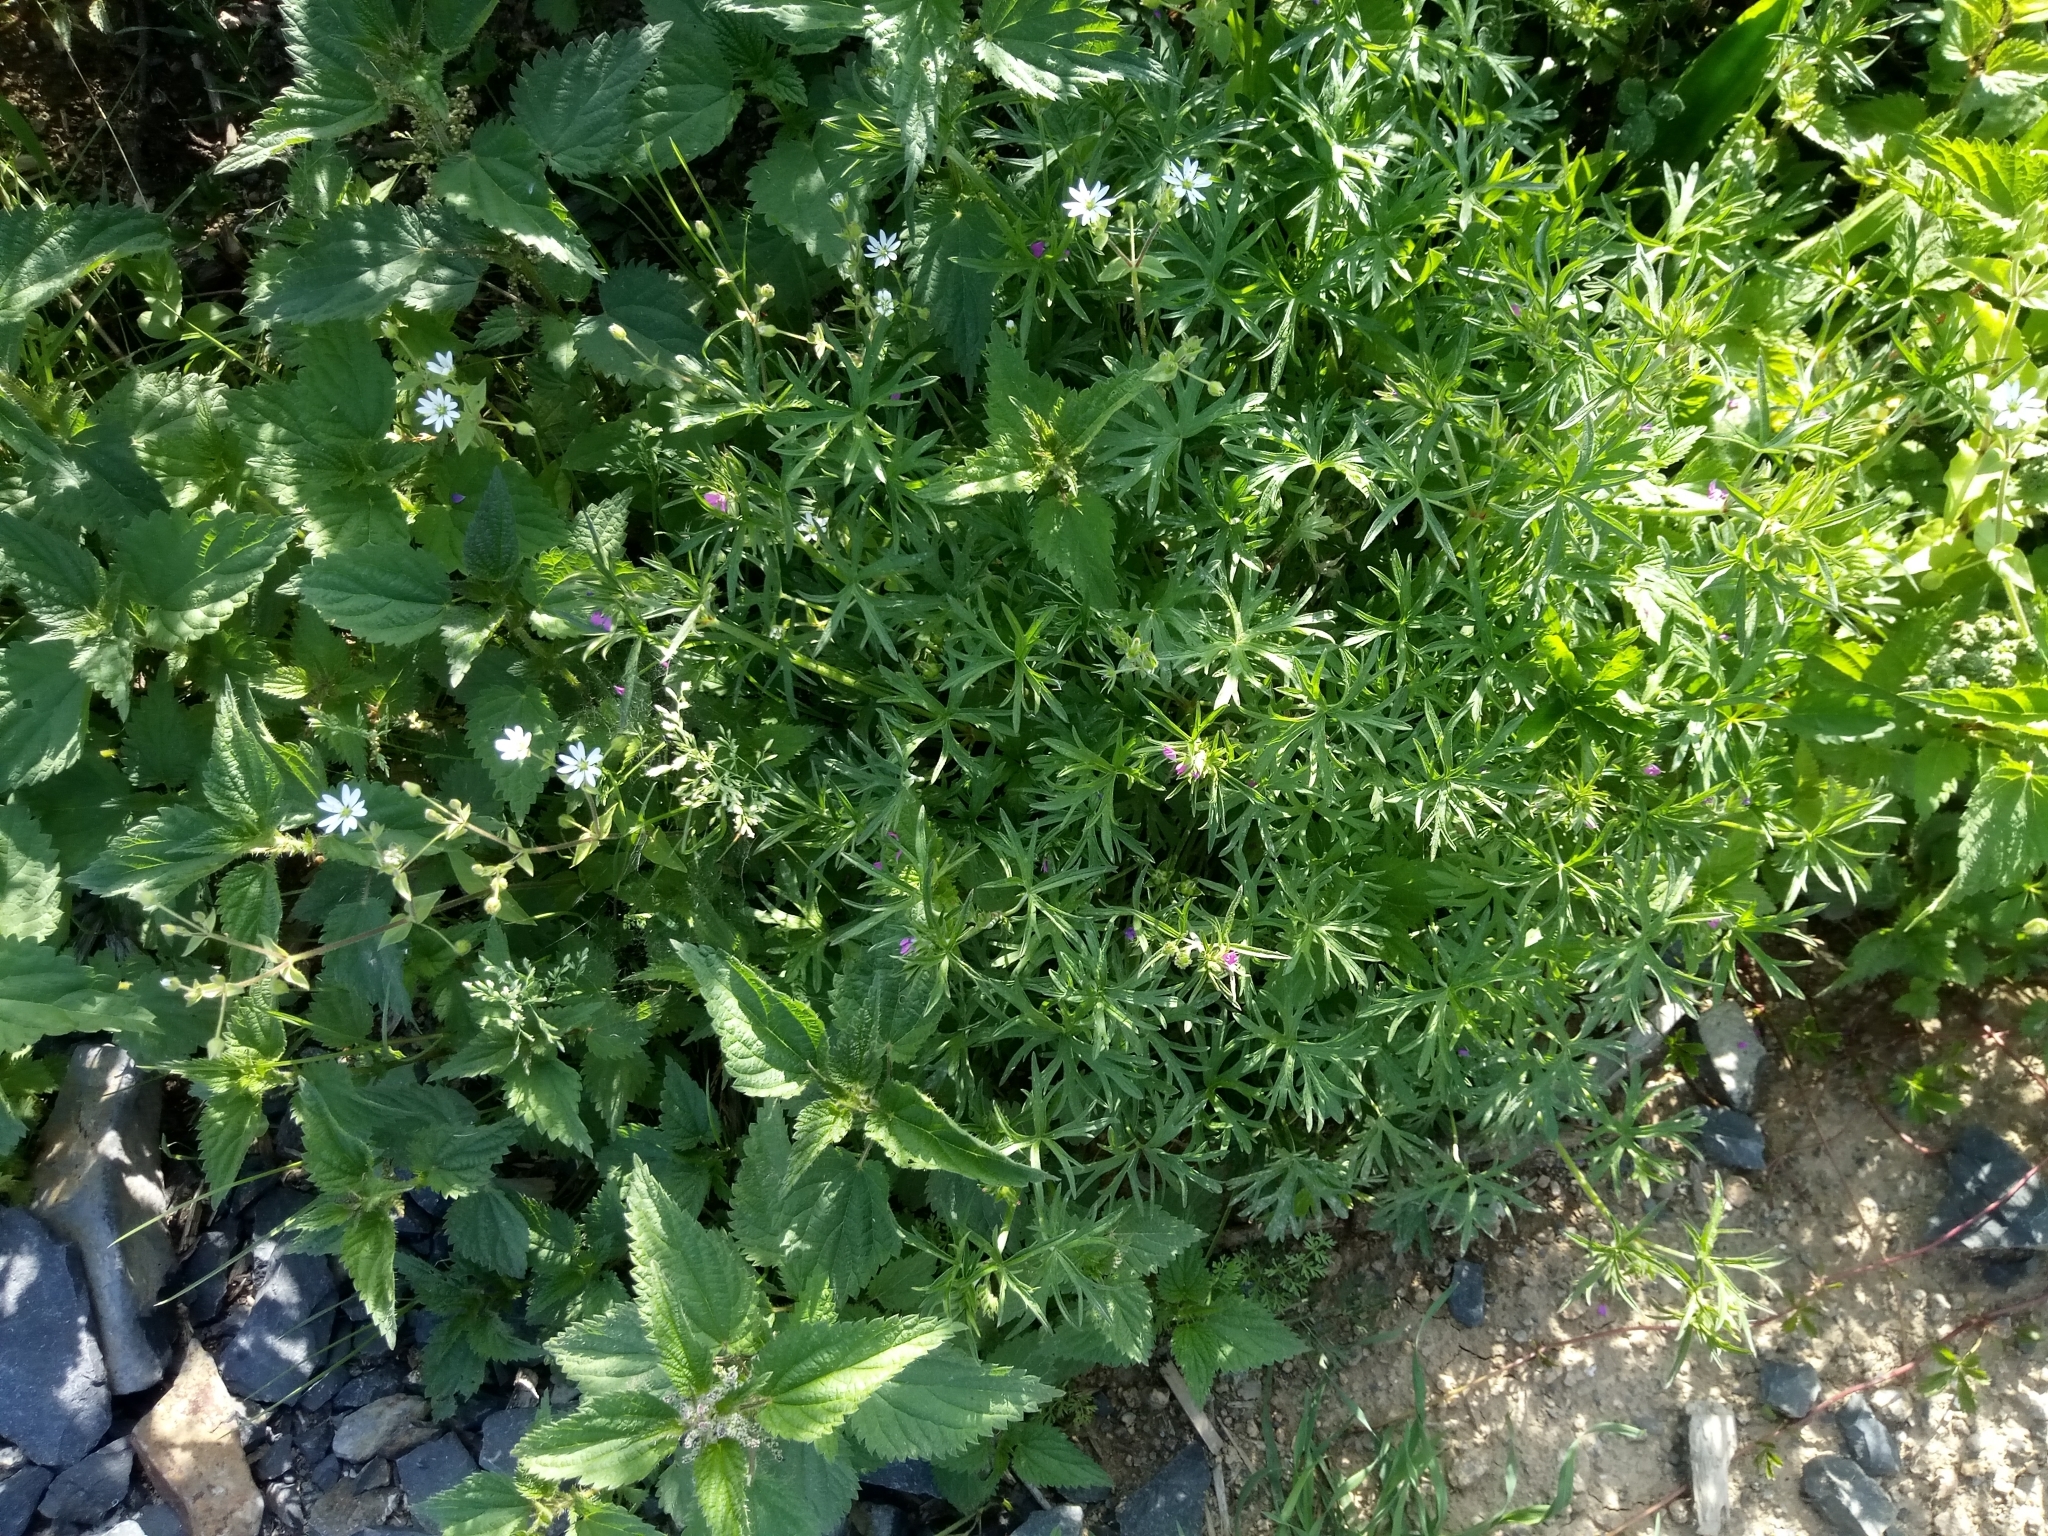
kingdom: Plantae
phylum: Tracheophyta
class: Magnoliopsida
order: Geraniales
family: Geraniaceae
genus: Geranium
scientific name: Geranium dissectum
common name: Cut-leaved crane's-bill
